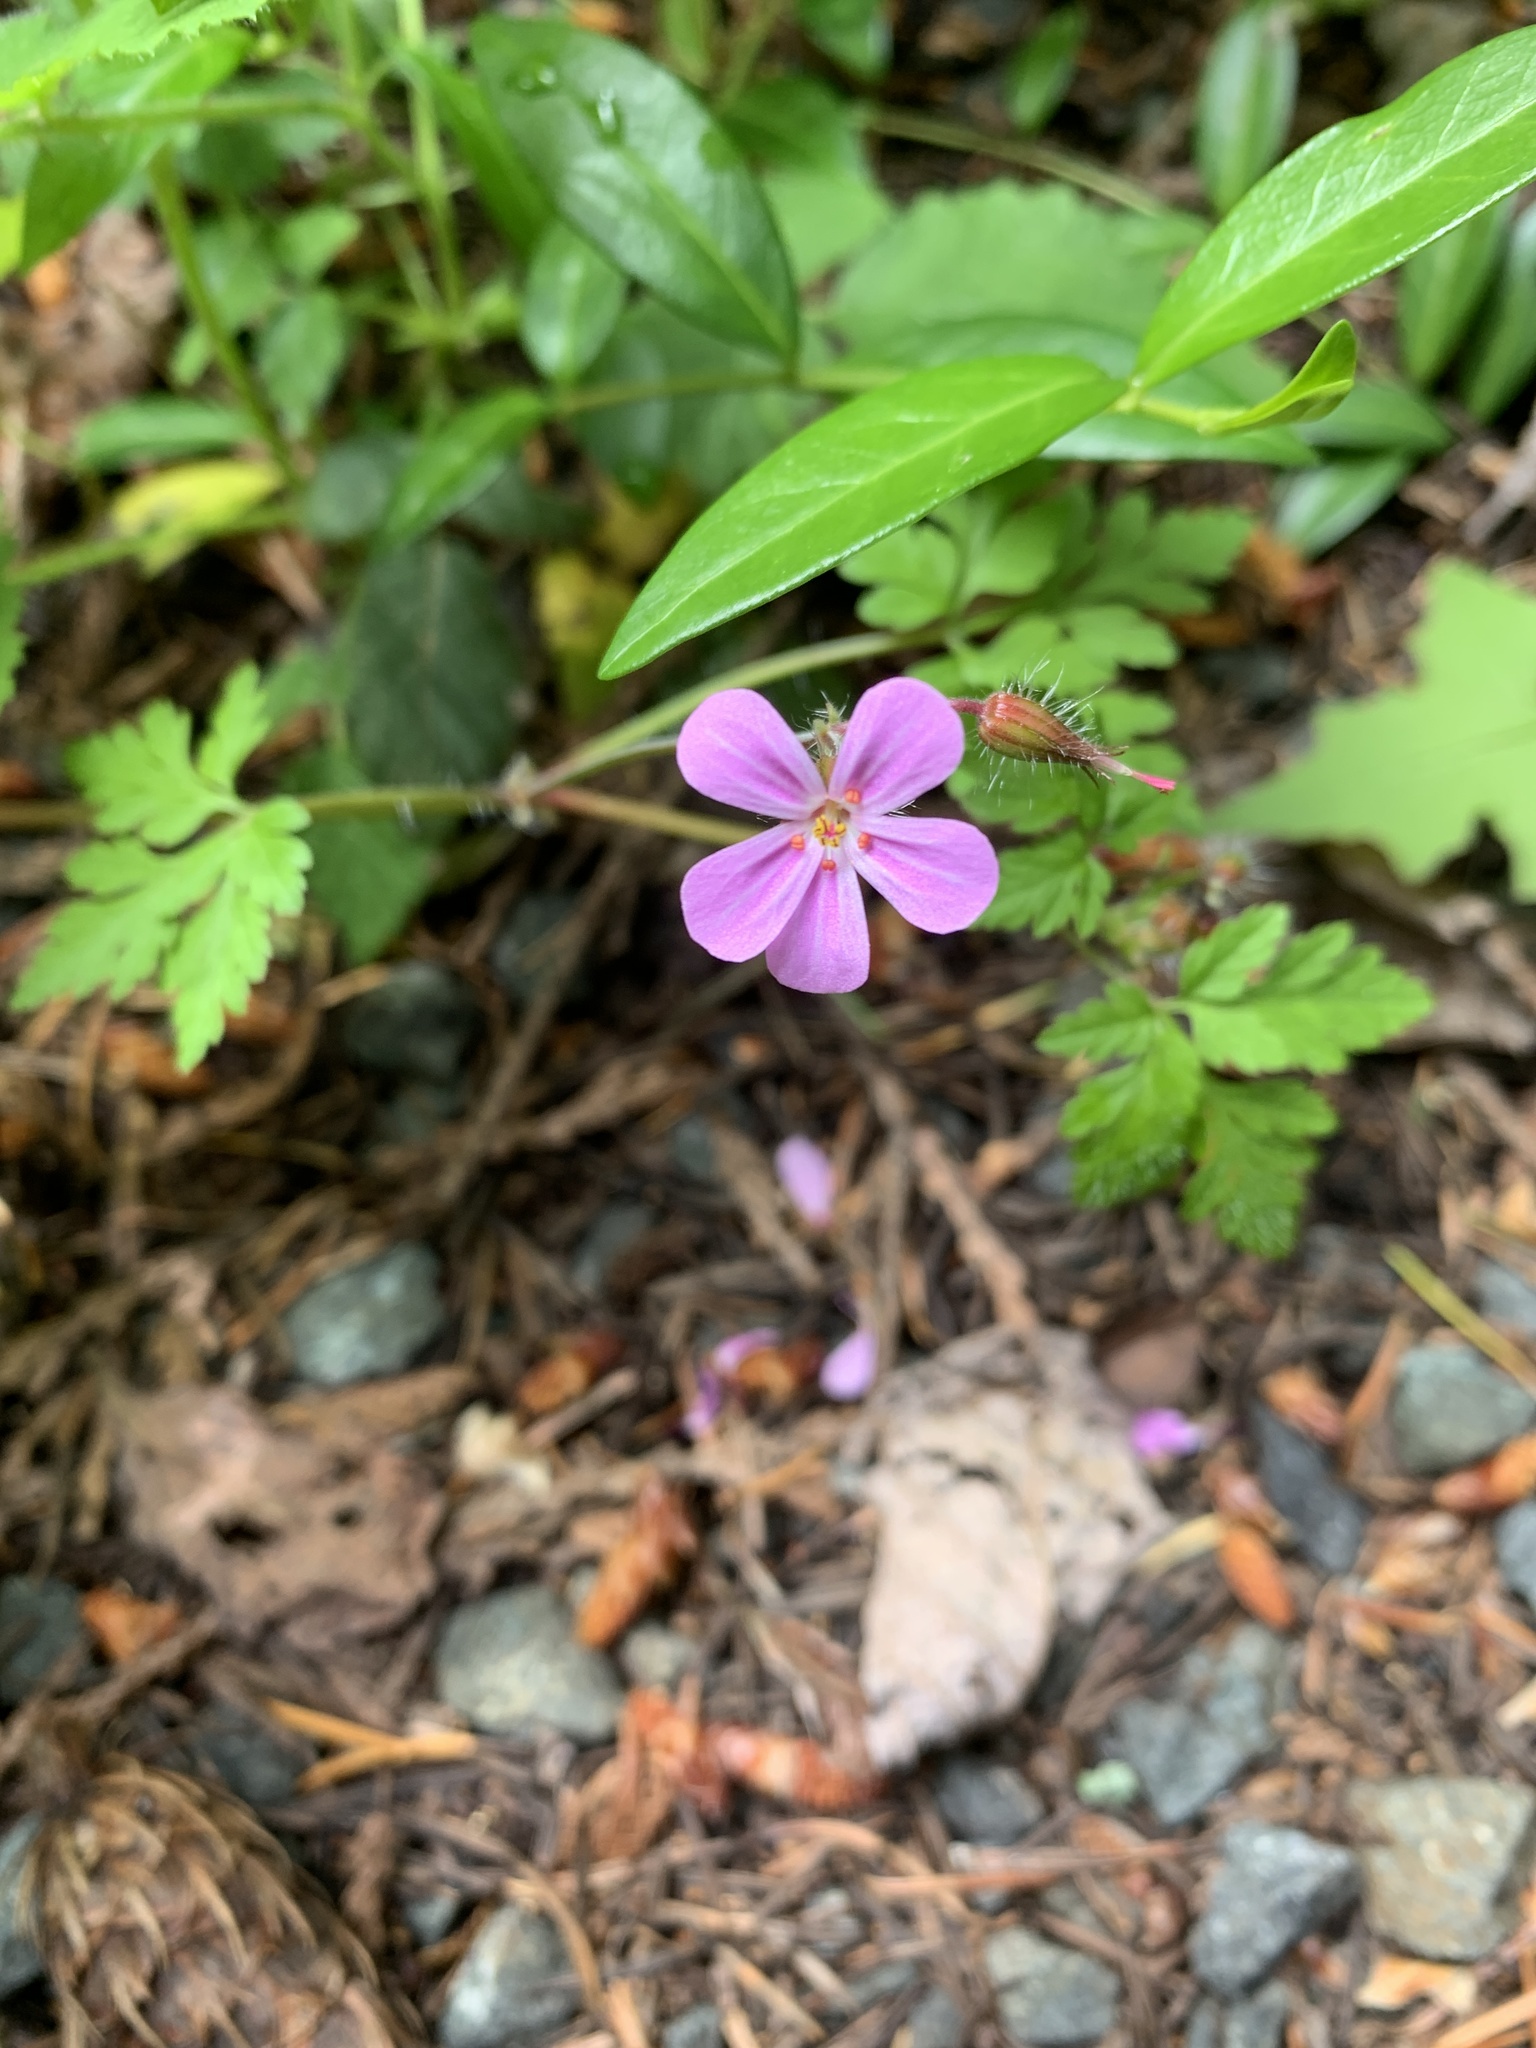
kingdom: Plantae
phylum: Tracheophyta
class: Magnoliopsida
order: Geraniales
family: Geraniaceae
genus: Geranium
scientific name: Geranium robertianum
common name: Herb-robert
